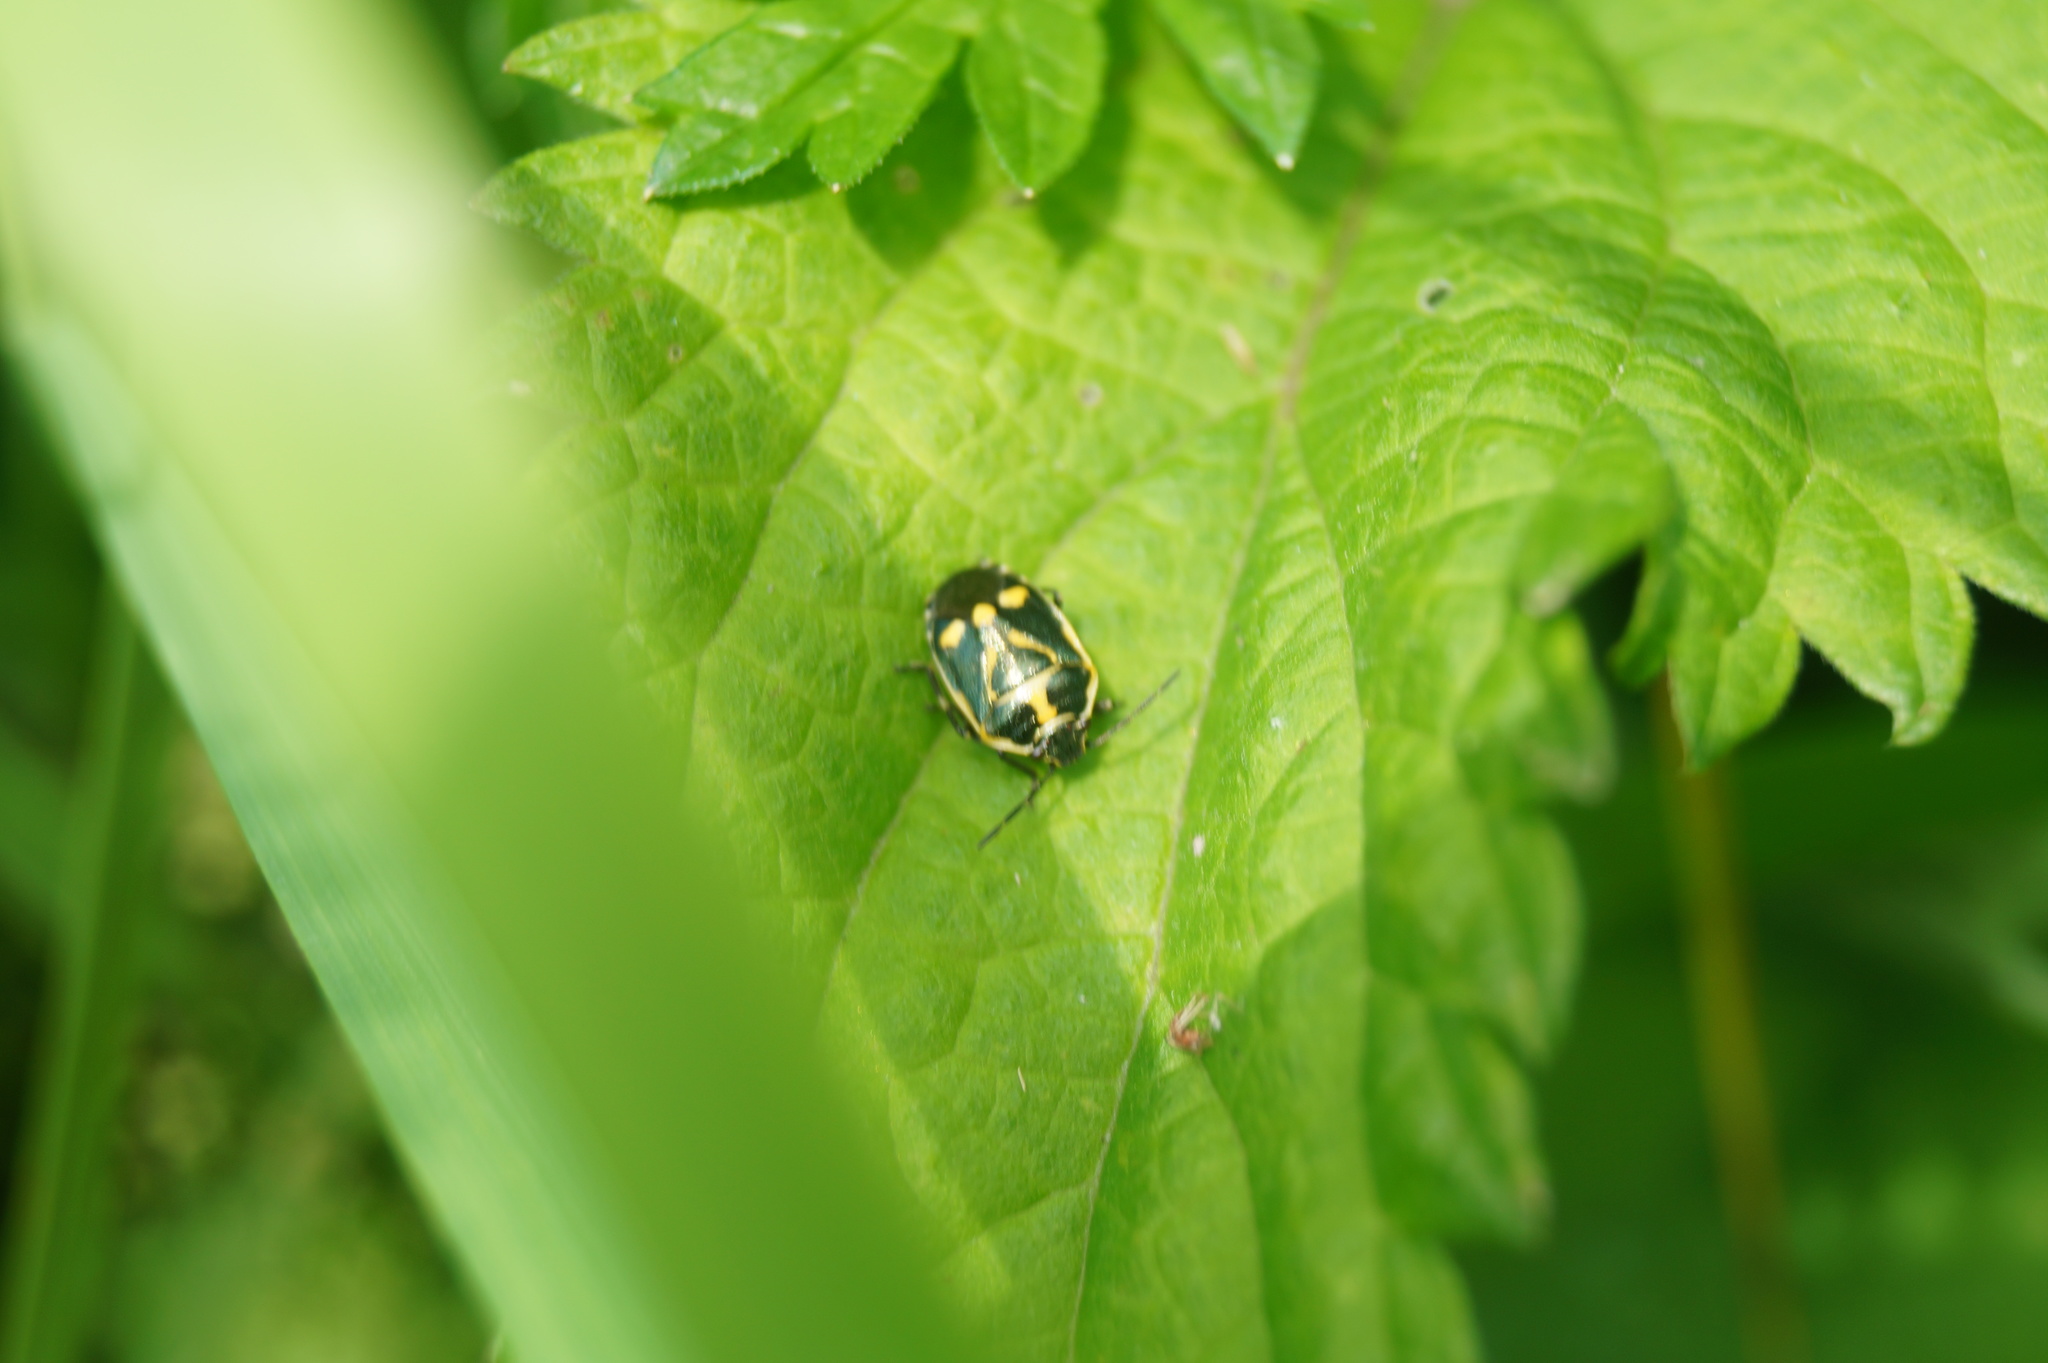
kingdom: Animalia
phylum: Arthropoda
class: Insecta
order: Hemiptera
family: Pentatomidae
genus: Eurydema
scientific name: Eurydema oleracea
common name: Cabbage bug
